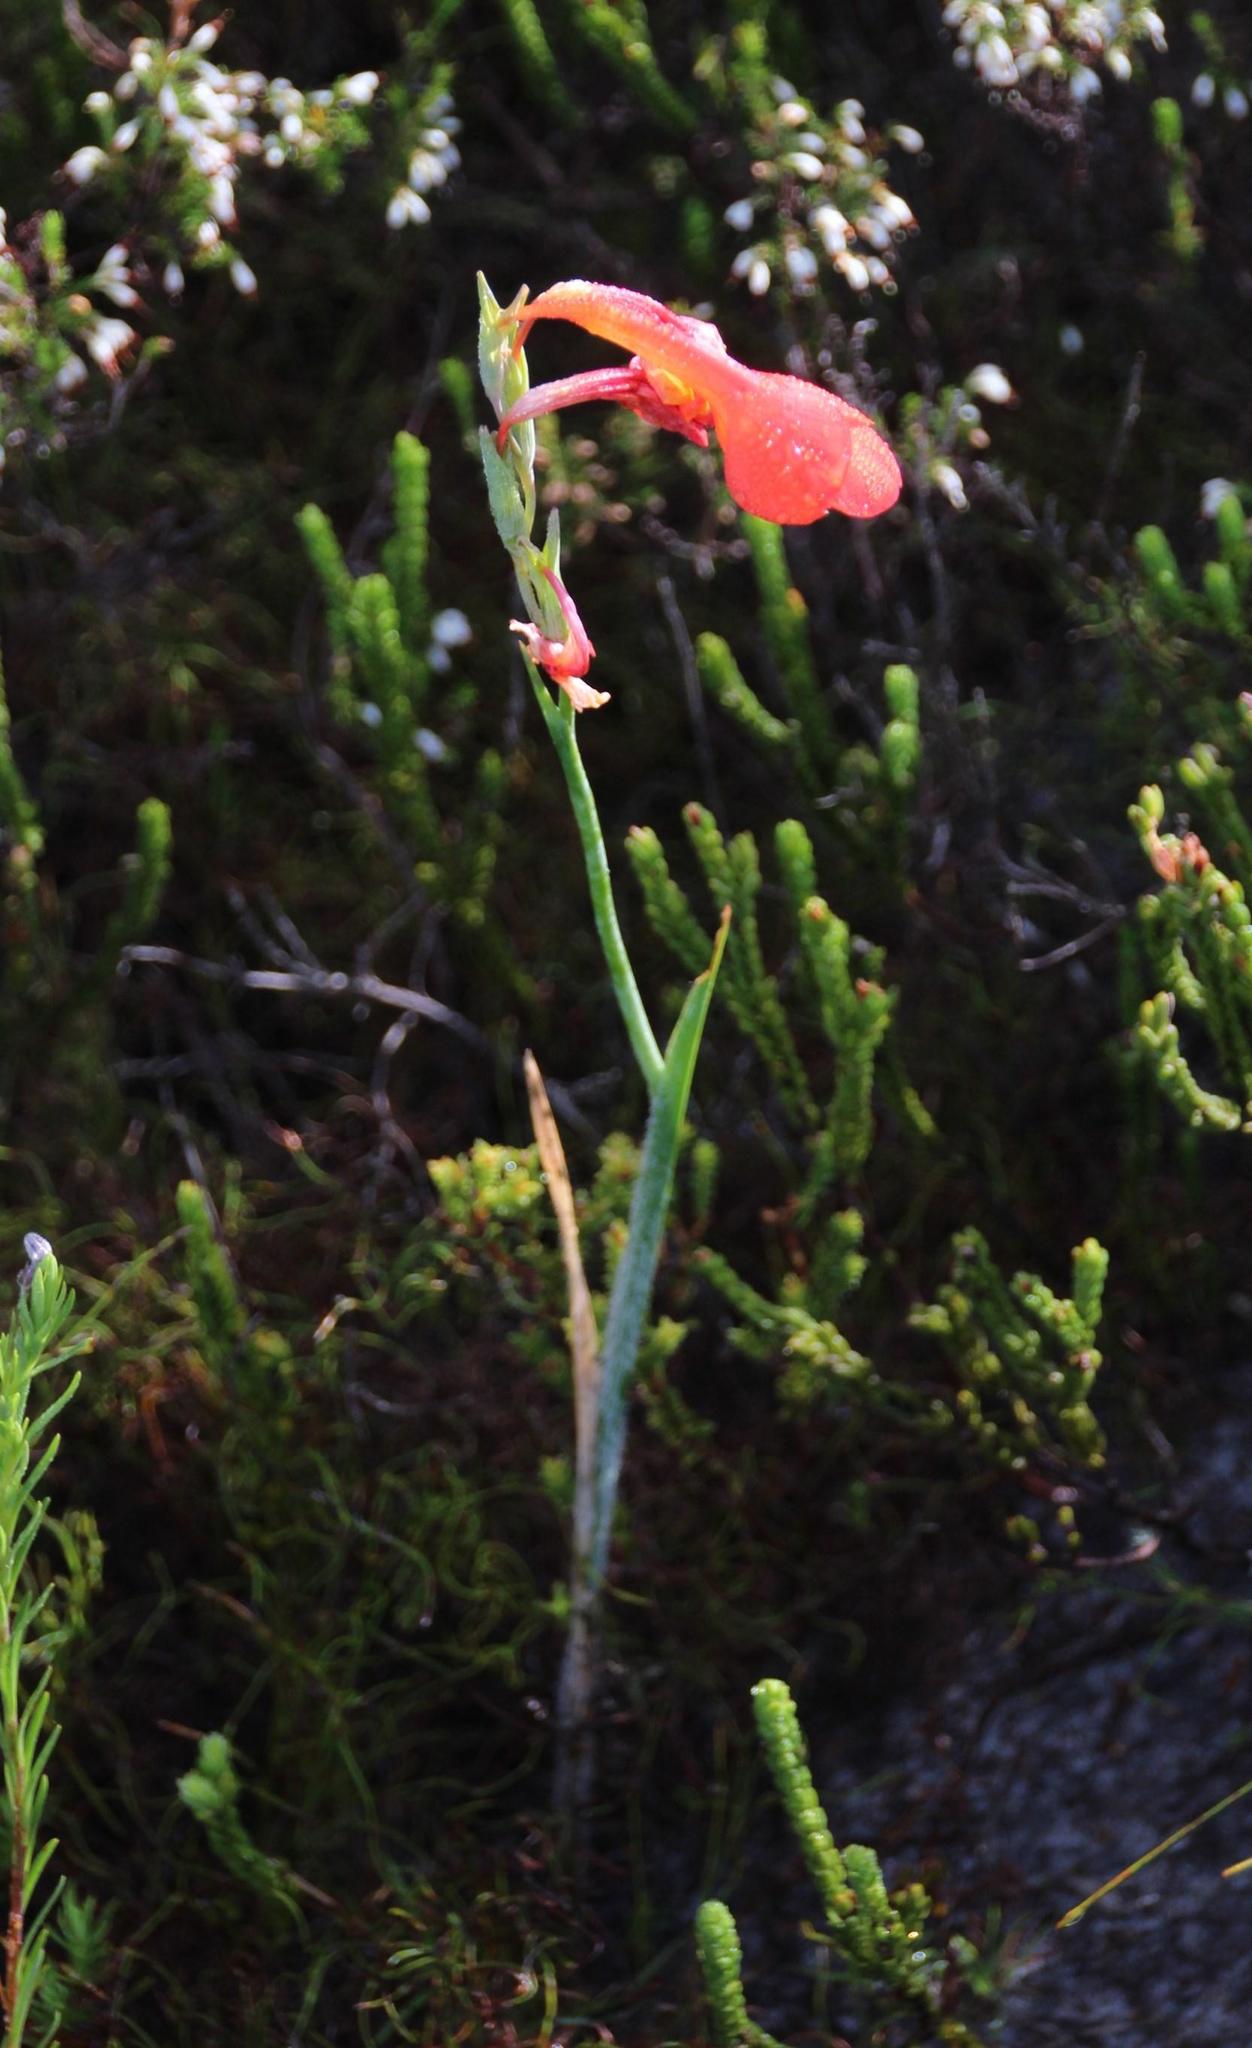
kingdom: Plantae
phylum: Tracheophyta
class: Liliopsida
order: Asparagales
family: Iridaceae
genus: Gladiolus
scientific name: Gladiolus merianellus
